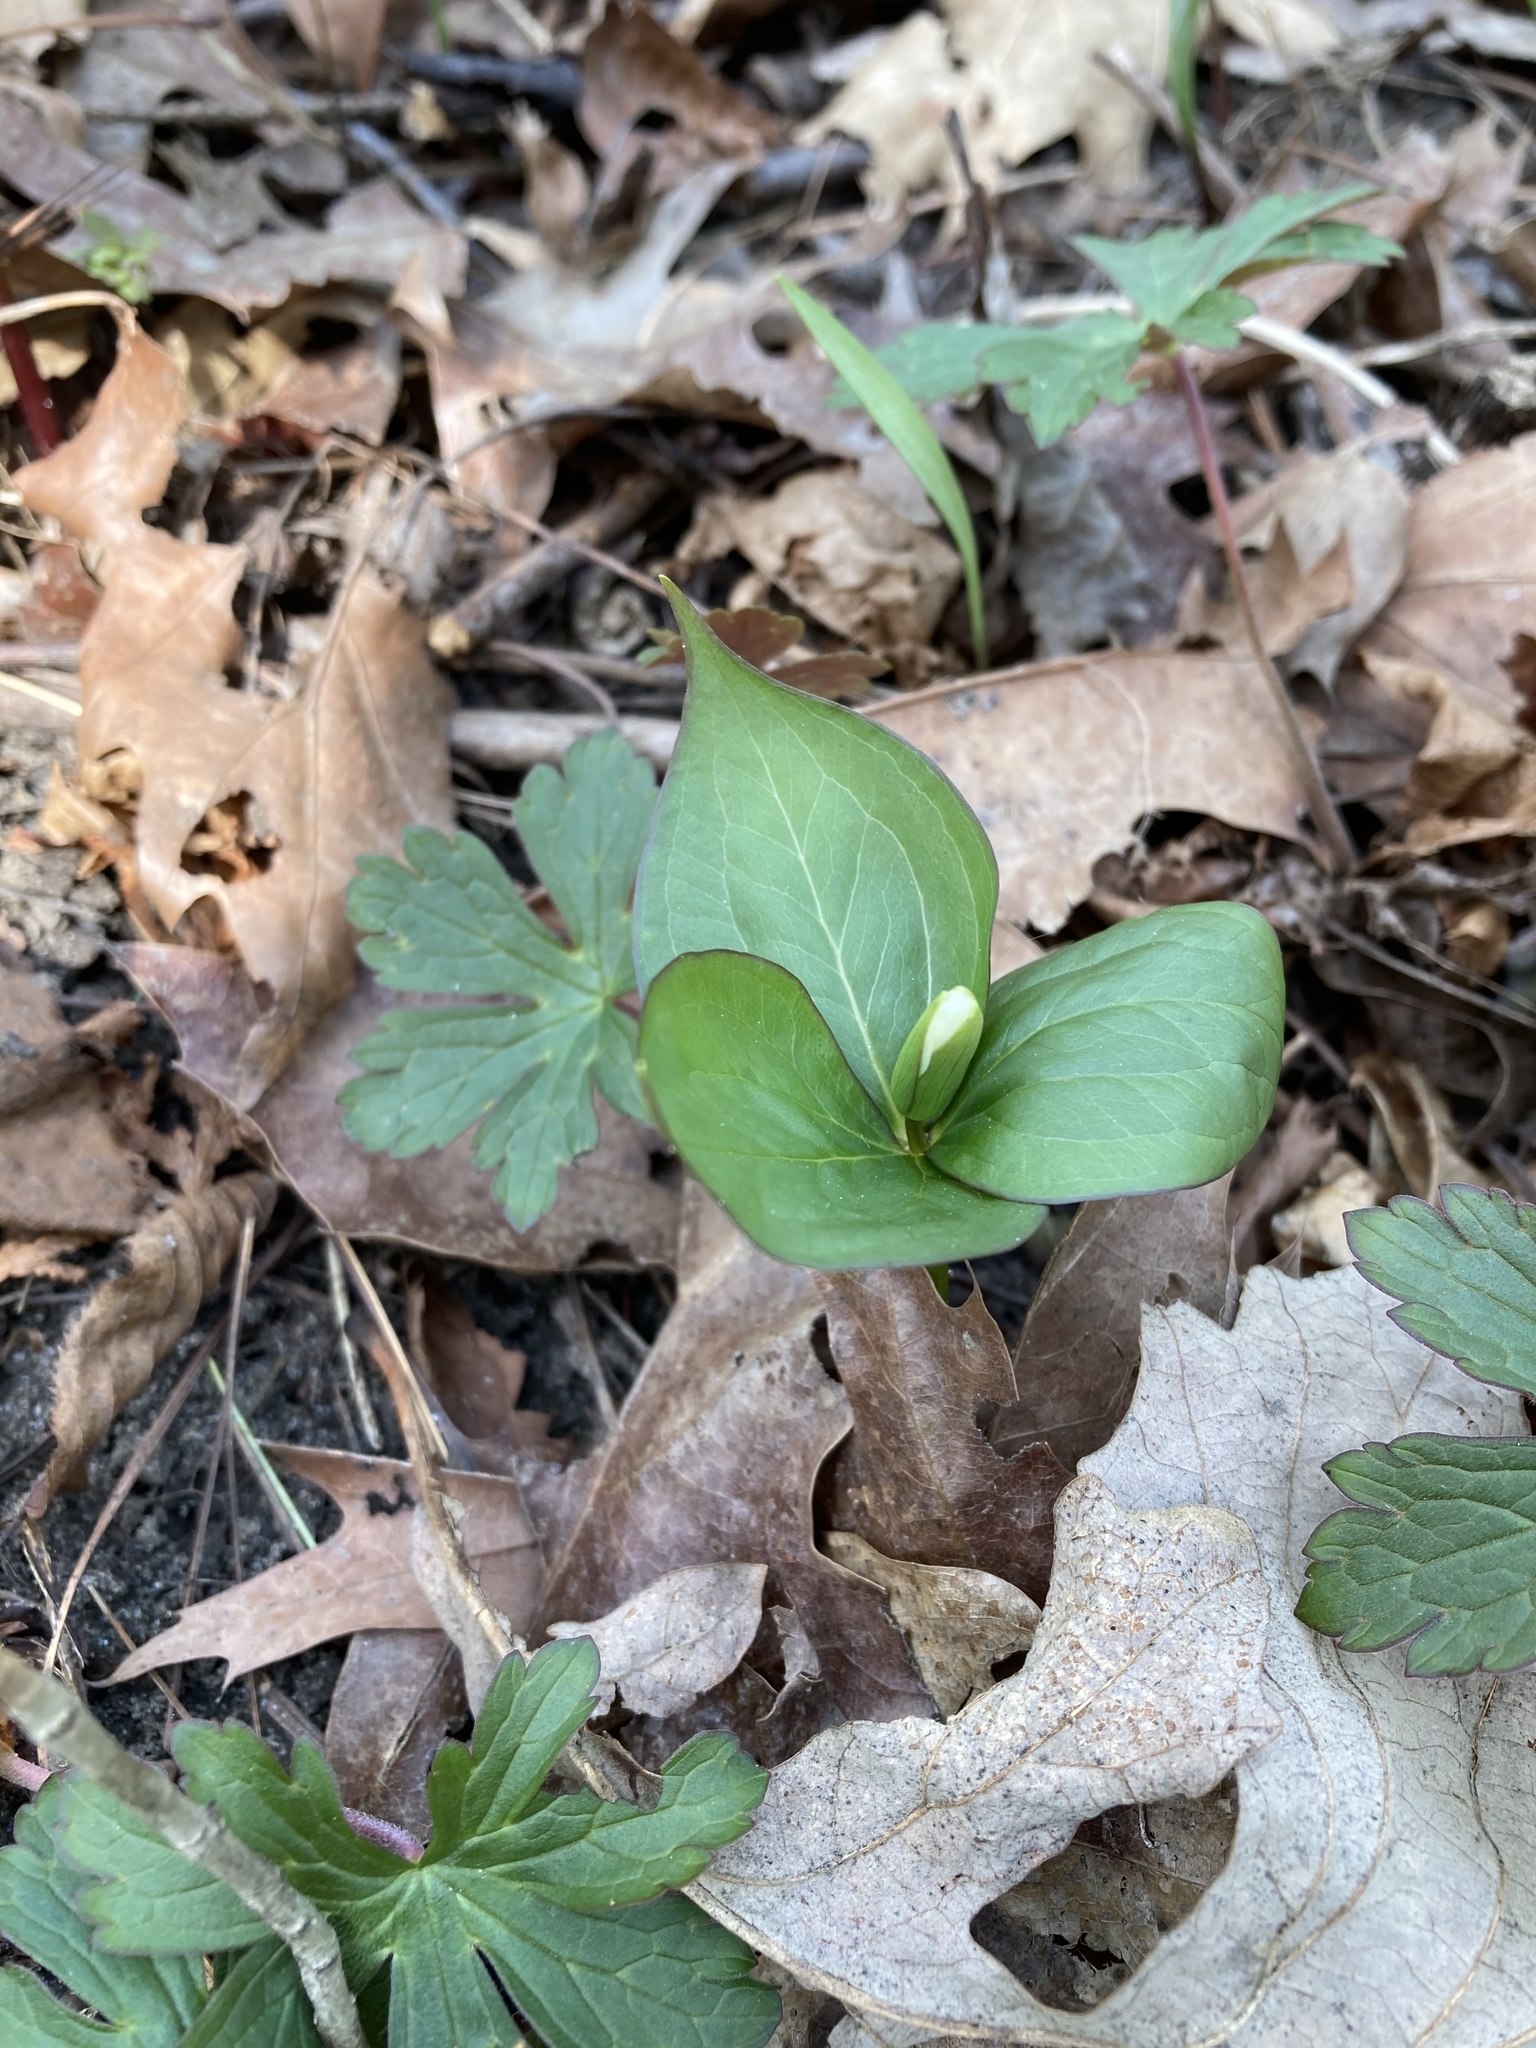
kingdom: Plantae
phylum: Tracheophyta
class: Liliopsida
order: Liliales
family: Melanthiaceae
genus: Trillium
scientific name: Trillium grandiflorum
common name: Great white trillium
